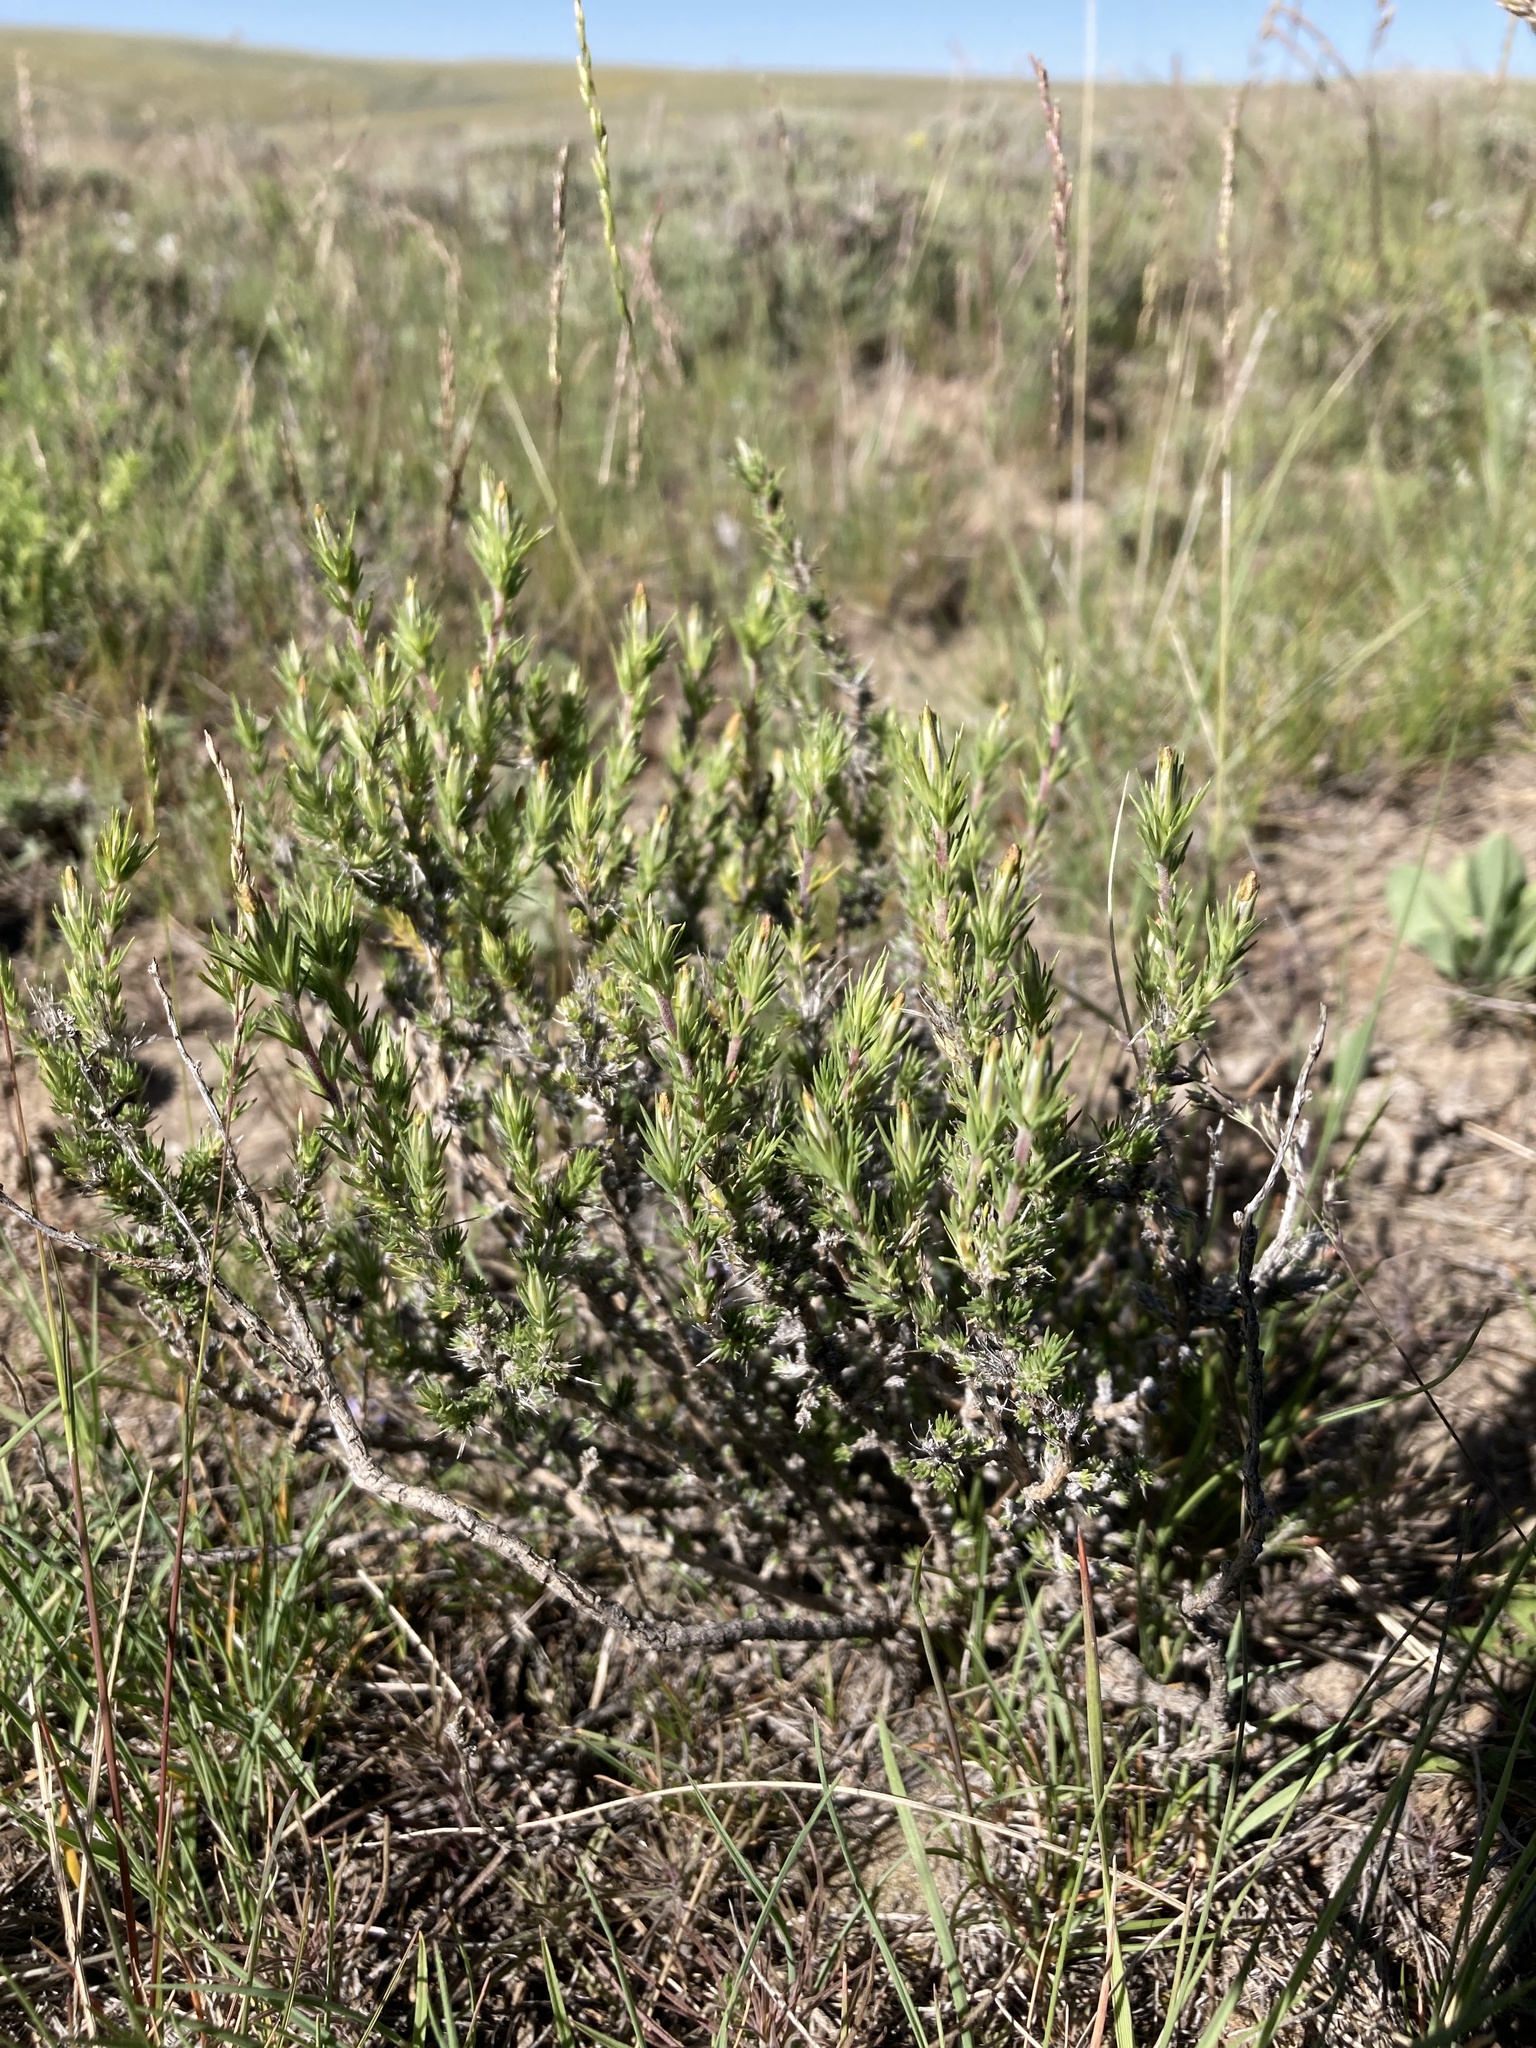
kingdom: Plantae
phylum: Tracheophyta
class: Magnoliopsida
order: Ericales
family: Polemoniaceae
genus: Linanthus
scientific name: Linanthus pungens
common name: Granite prickly phlox
